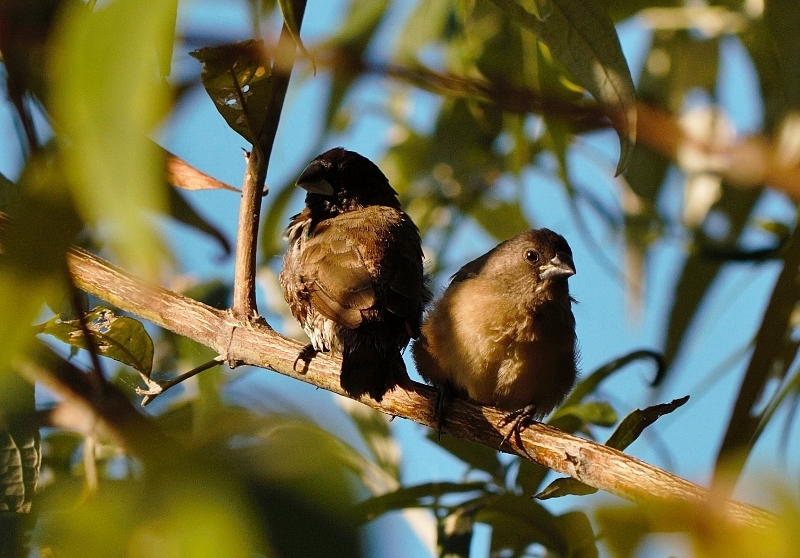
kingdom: Animalia
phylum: Chordata
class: Aves
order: Passeriformes
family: Estrildidae
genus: Lonchura
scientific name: Lonchura cucullata
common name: Bronze mannikin
